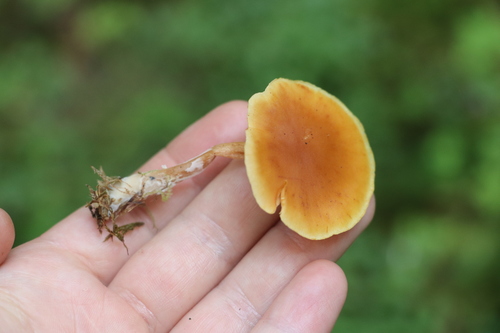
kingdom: Fungi
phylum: Basidiomycota
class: Agaricomycetes
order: Agaricales
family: Hymenogastraceae
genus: Gymnopilus
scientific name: Gymnopilus penetrans
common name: Common rustgill
